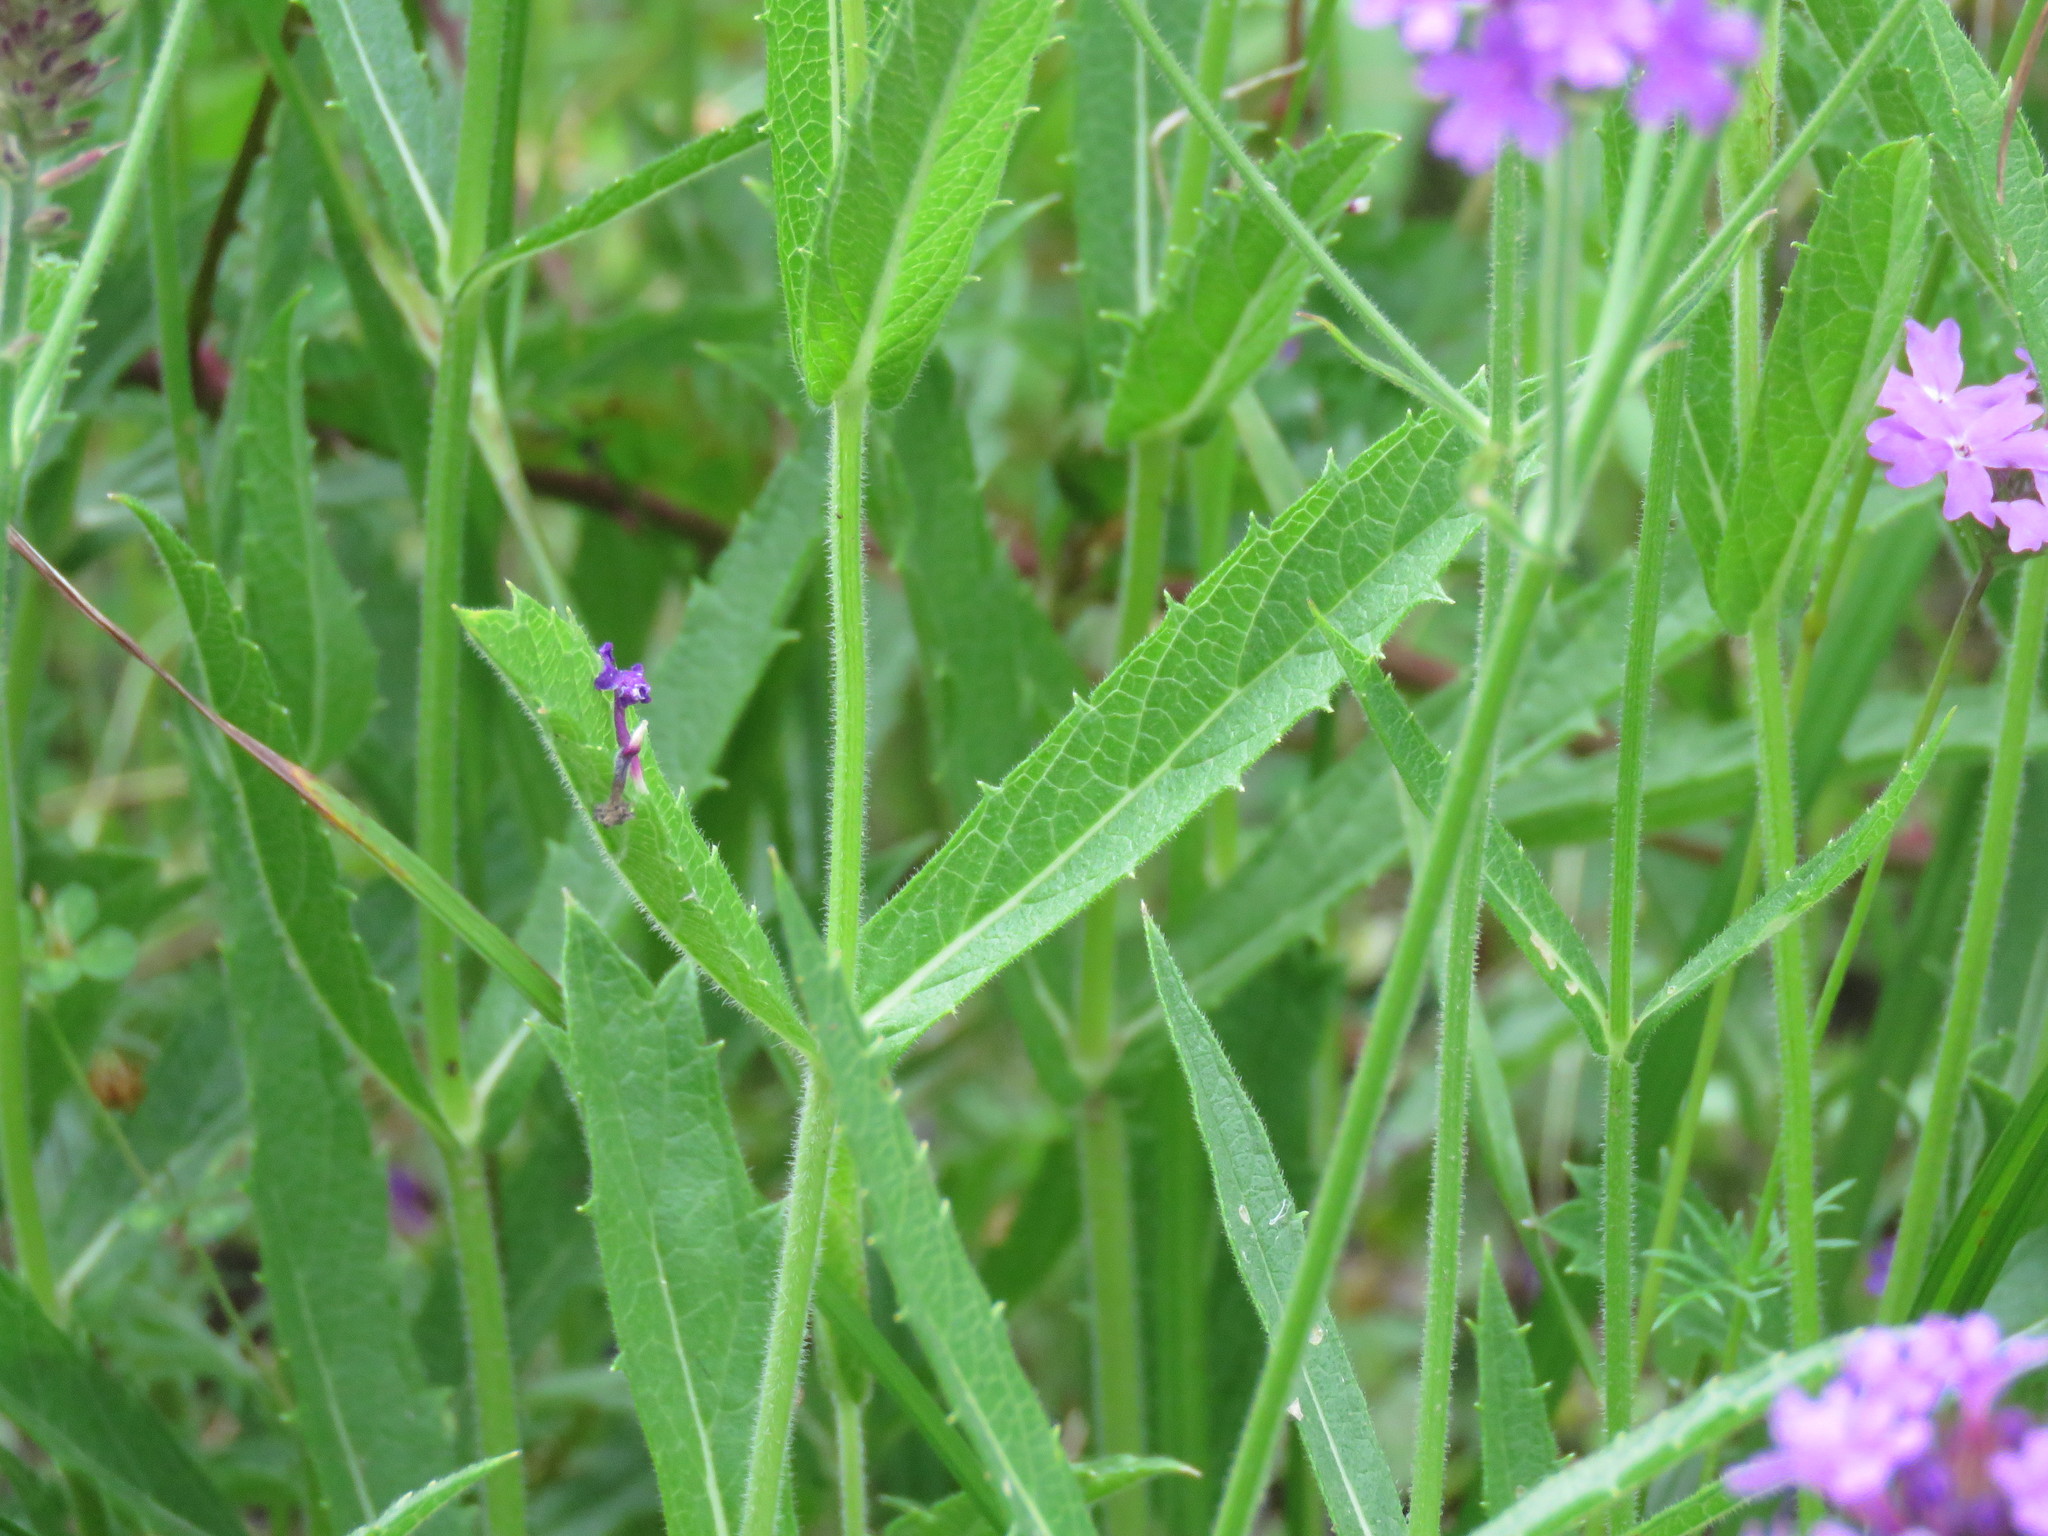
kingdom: Plantae
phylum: Tracheophyta
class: Magnoliopsida
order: Lamiales
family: Verbenaceae
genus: Verbena
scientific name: Verbena rigida
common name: Slender vervain
